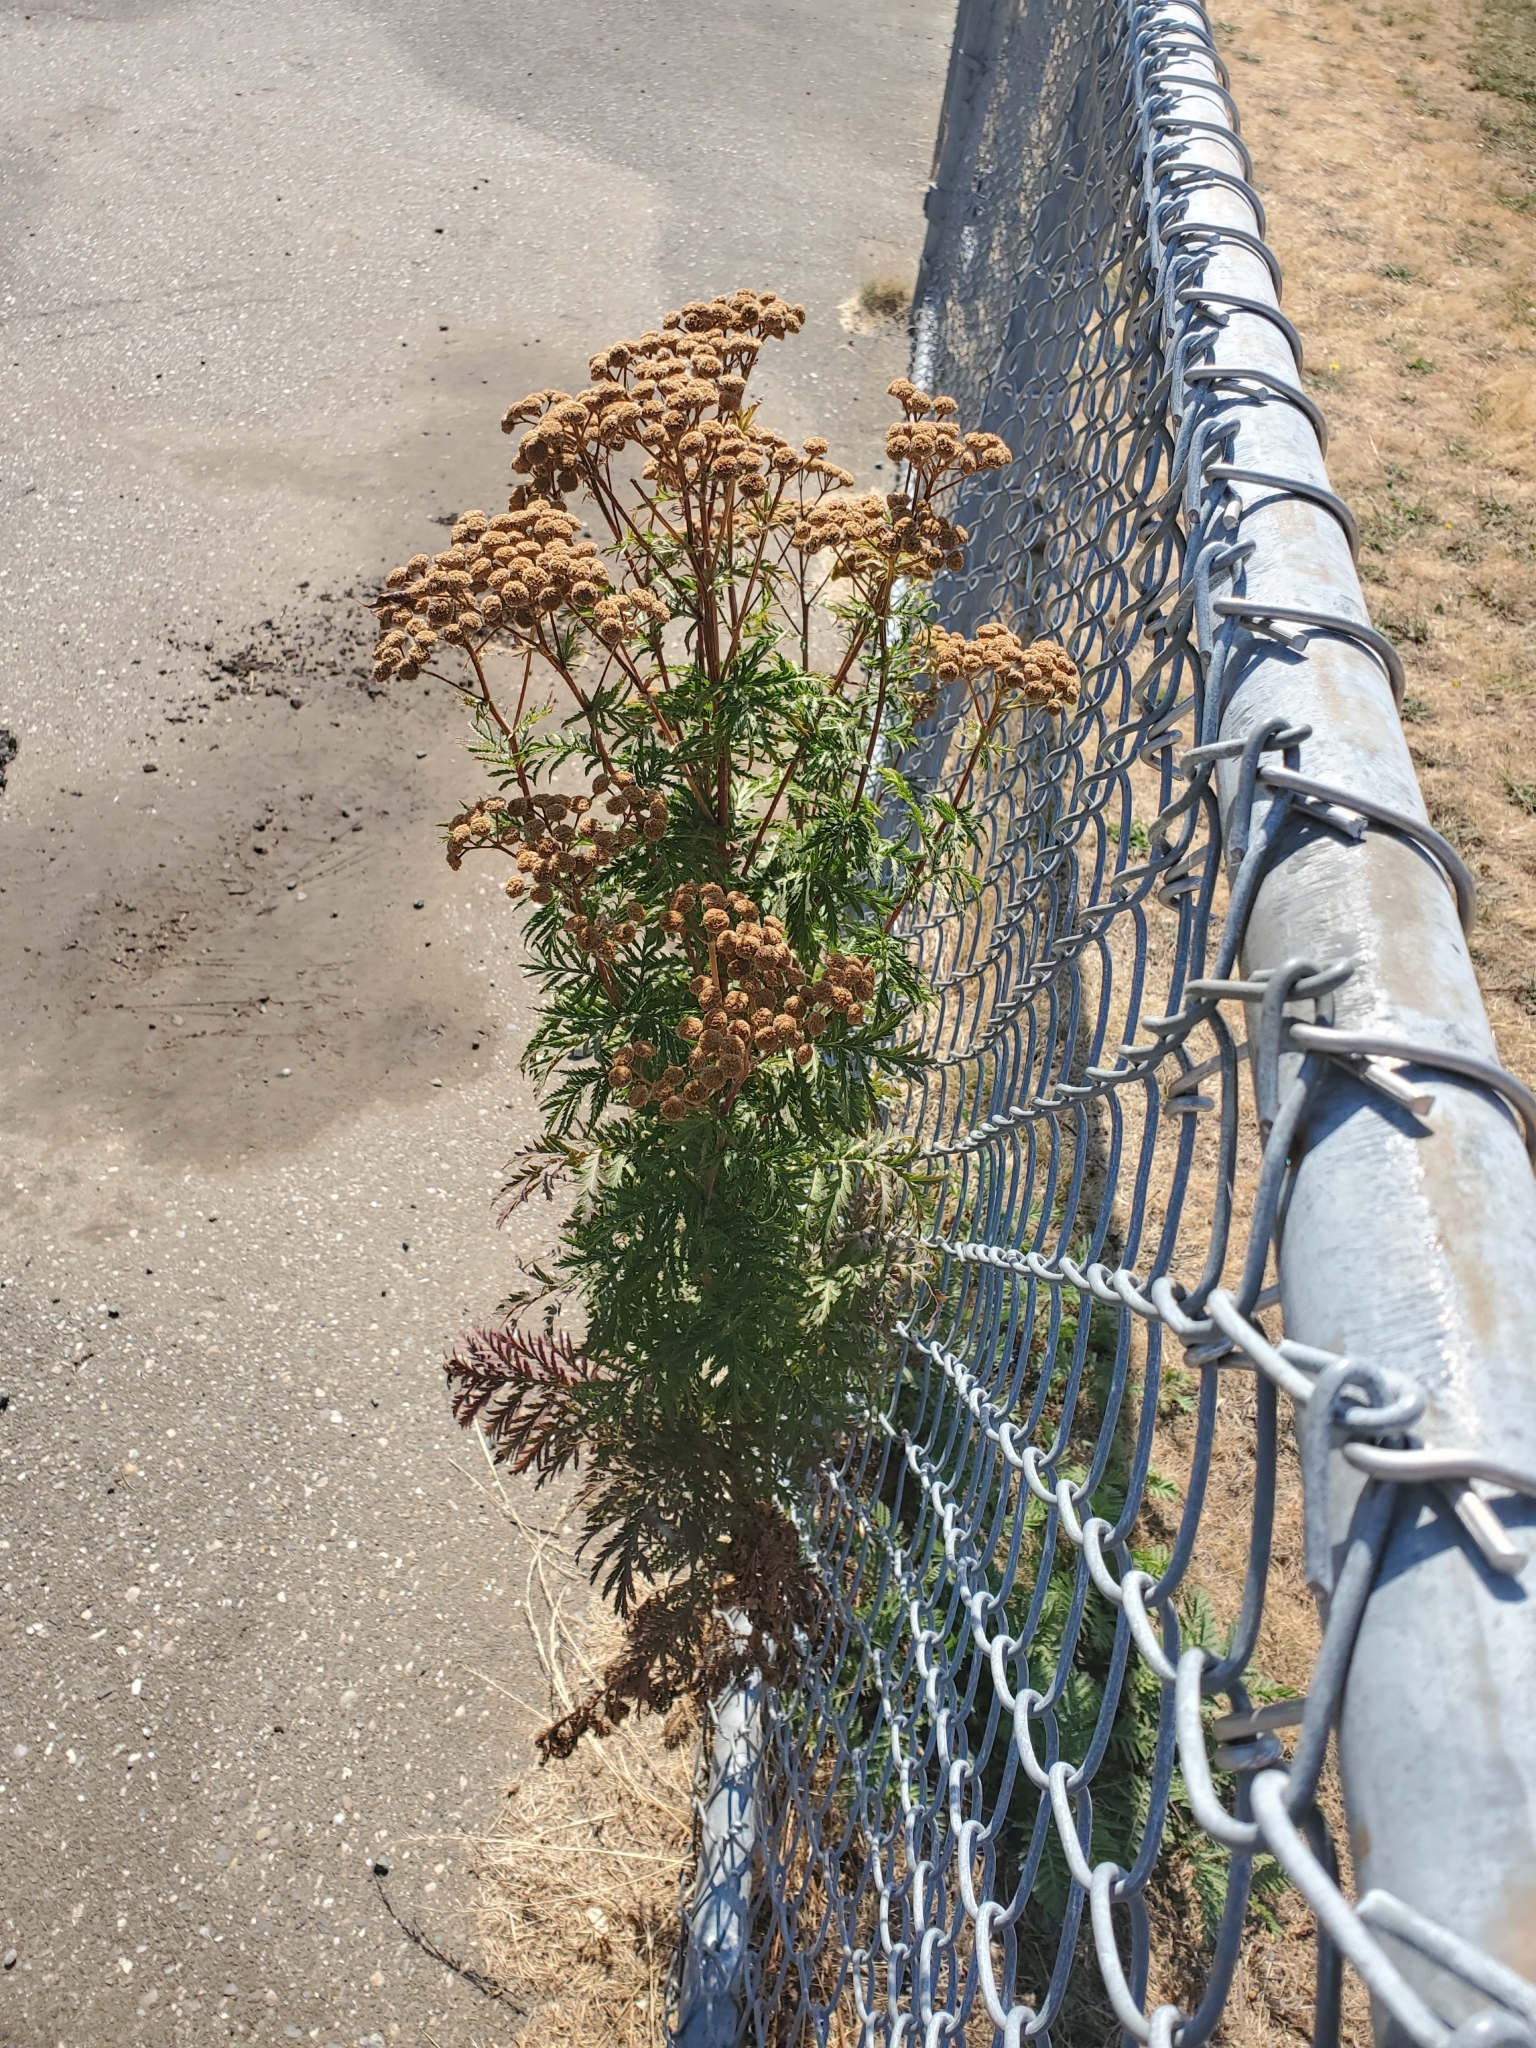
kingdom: Plantae
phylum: Tracheophyta
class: Magnoliopsida
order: Asterales
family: Asteraceae
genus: Tanacetum
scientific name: Tanacetum vulgare
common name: Common tansy
